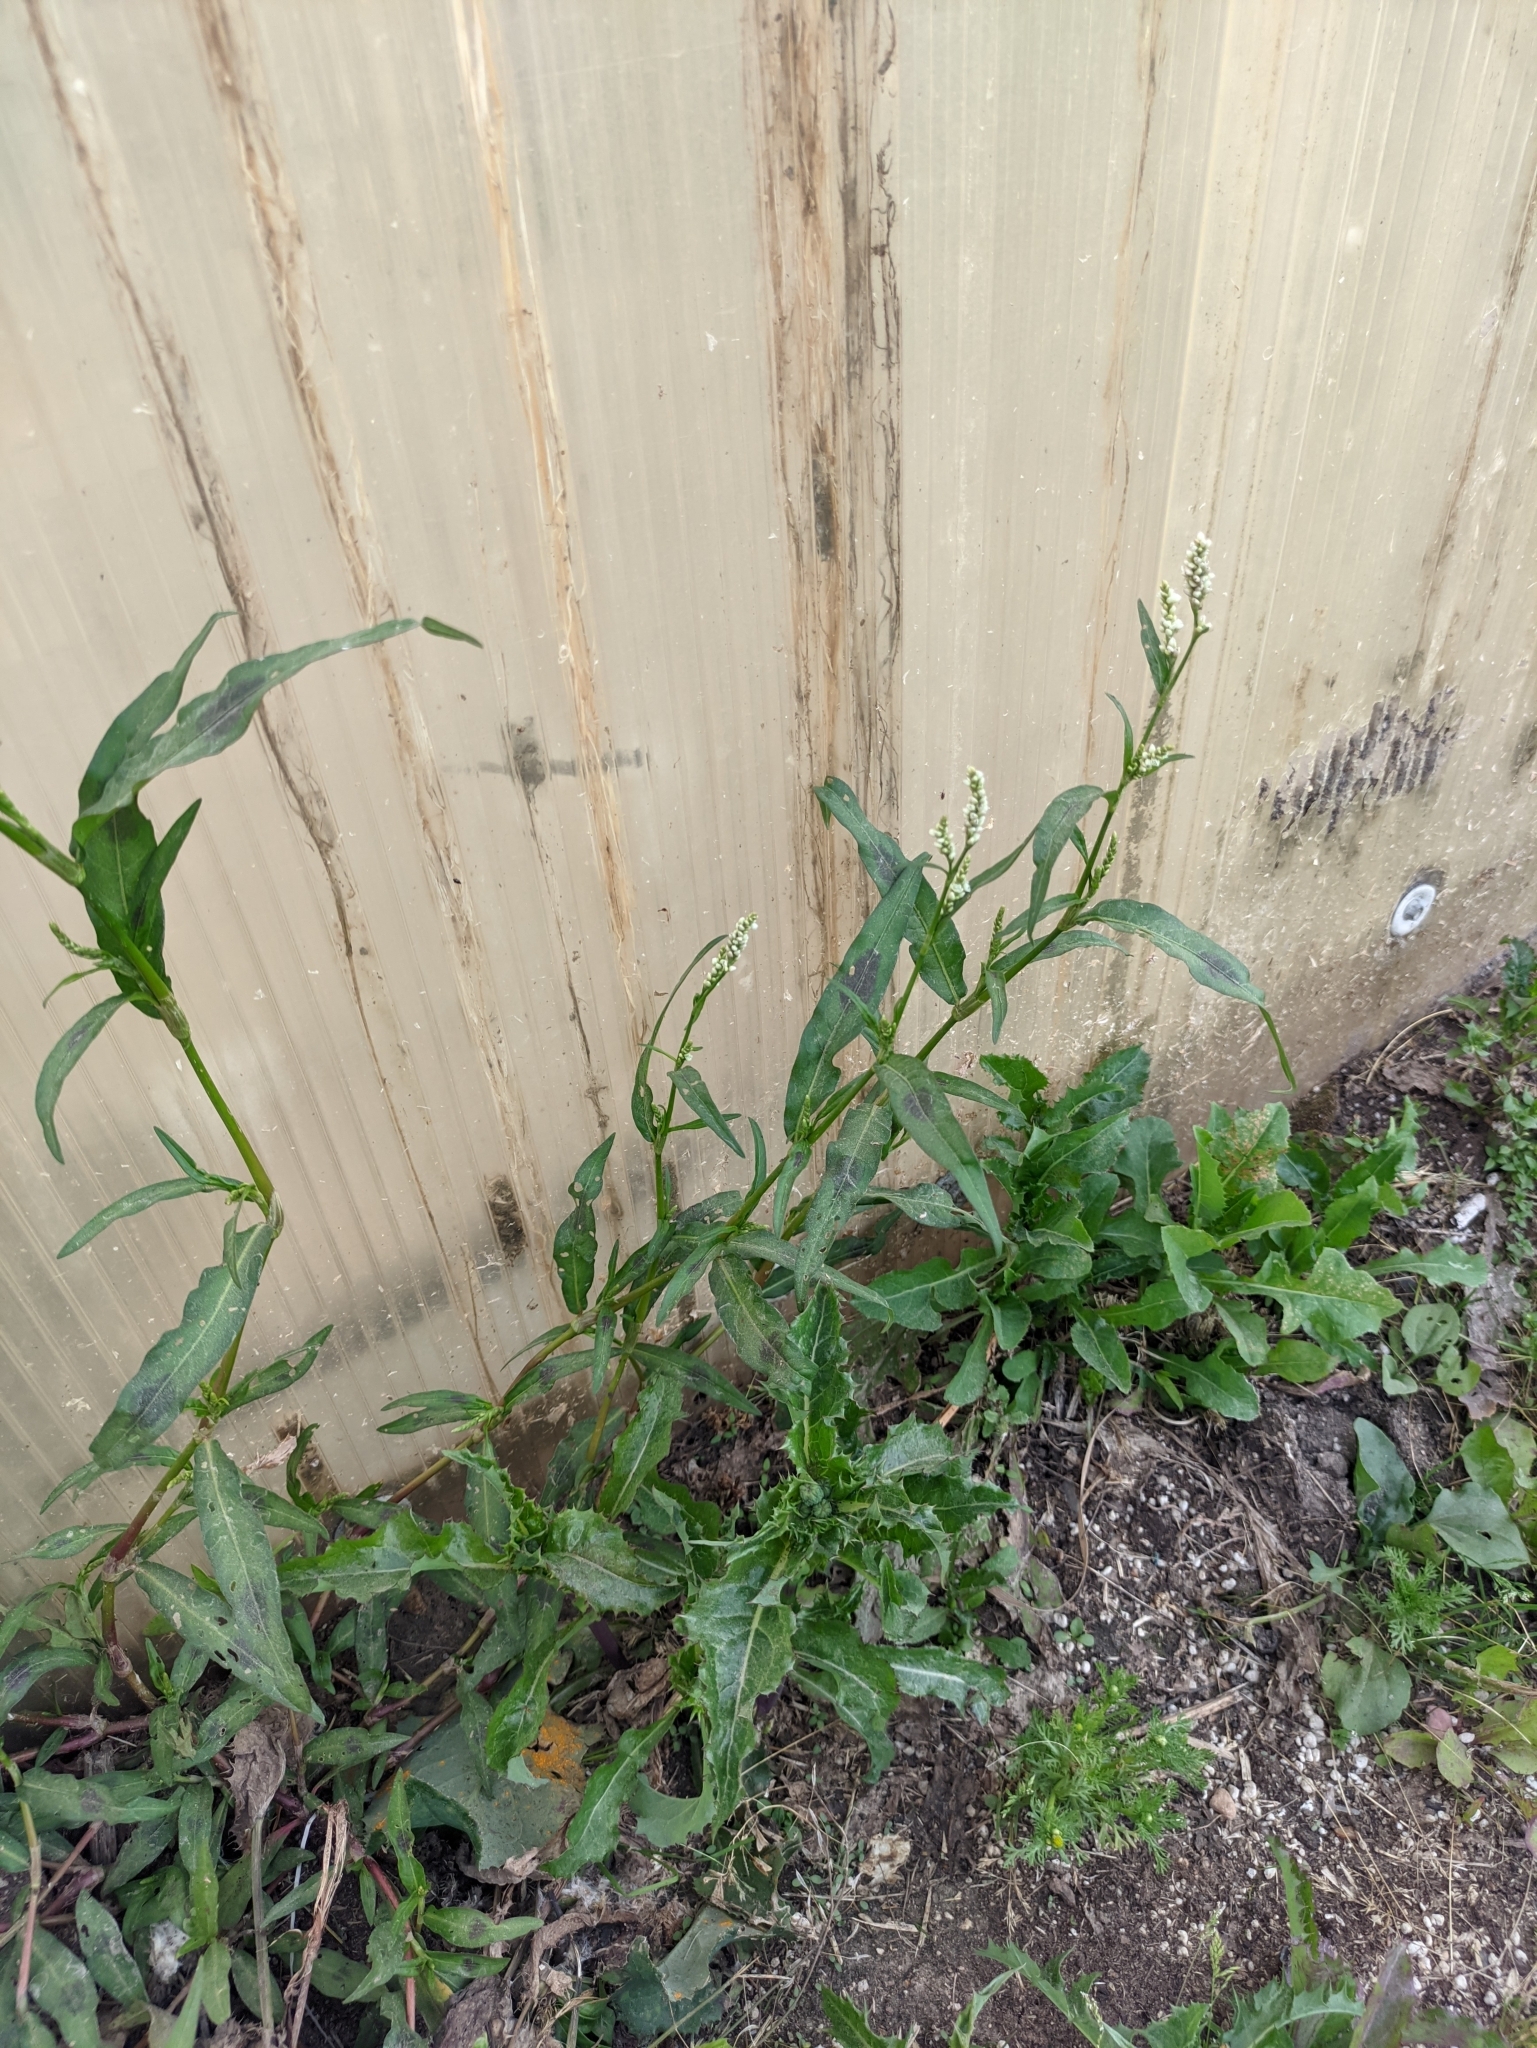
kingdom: Plantae
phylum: Tracheophyta
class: Magnoliopsida
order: Caryophyllales
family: Polygonaceae
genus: Persicaria
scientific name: Persicaria lapathifolia
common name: Curlytop knotweed
